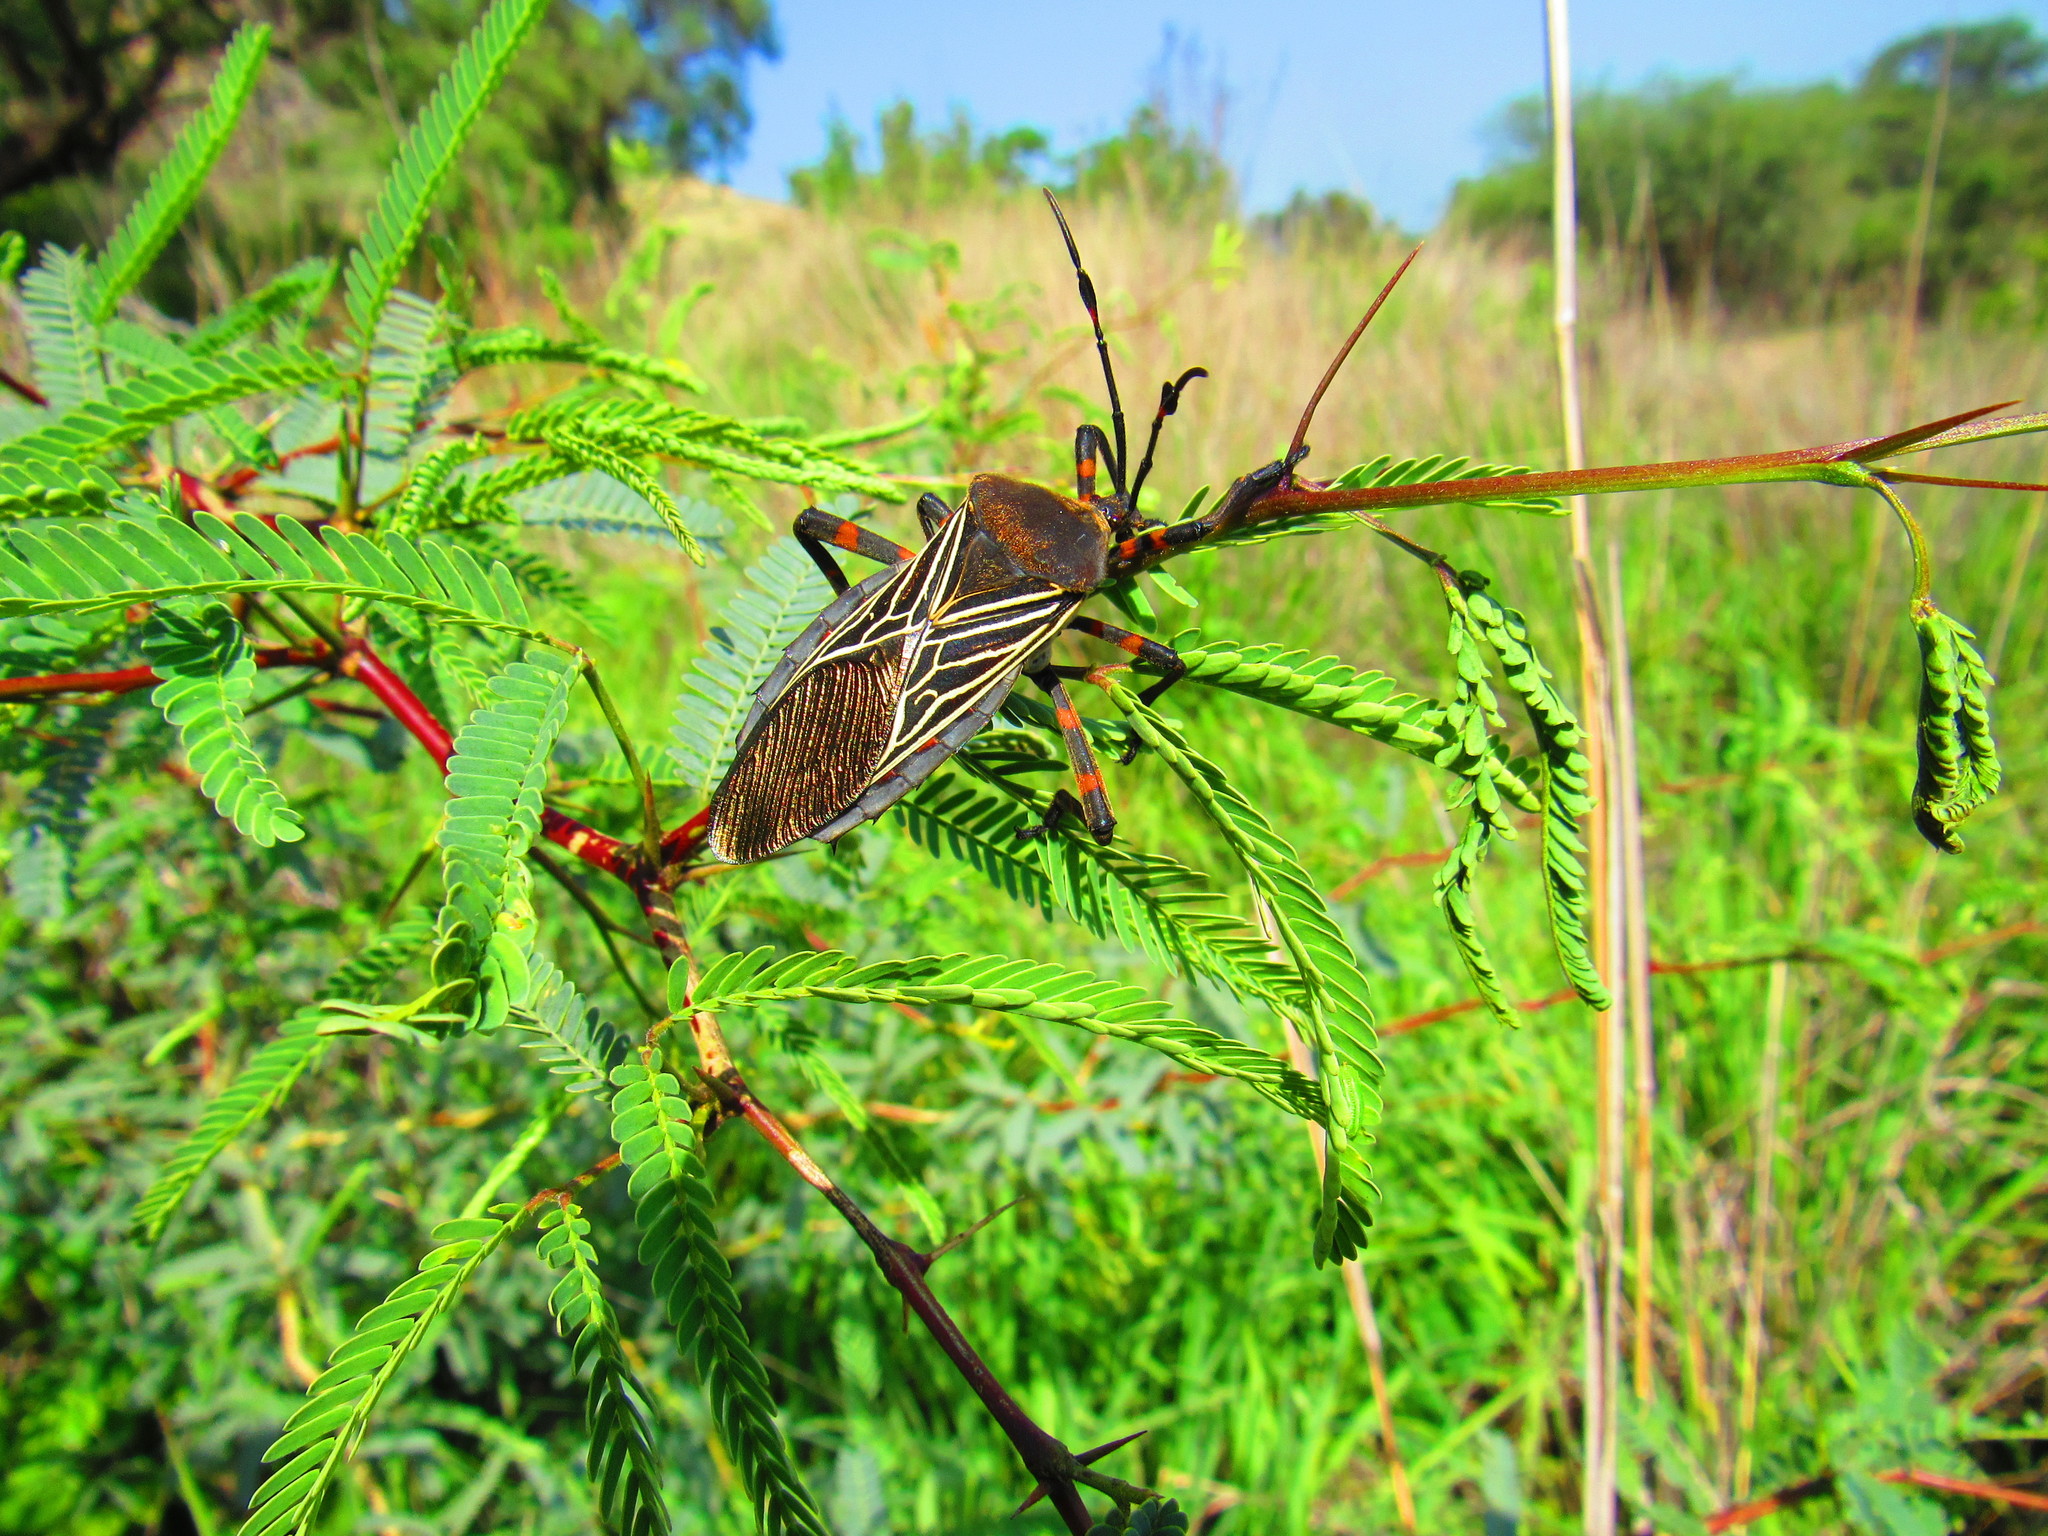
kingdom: Animalia
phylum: Arthropoda
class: Insecta
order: Hemiptera
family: Coreidae
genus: Thasus
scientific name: Thasus
